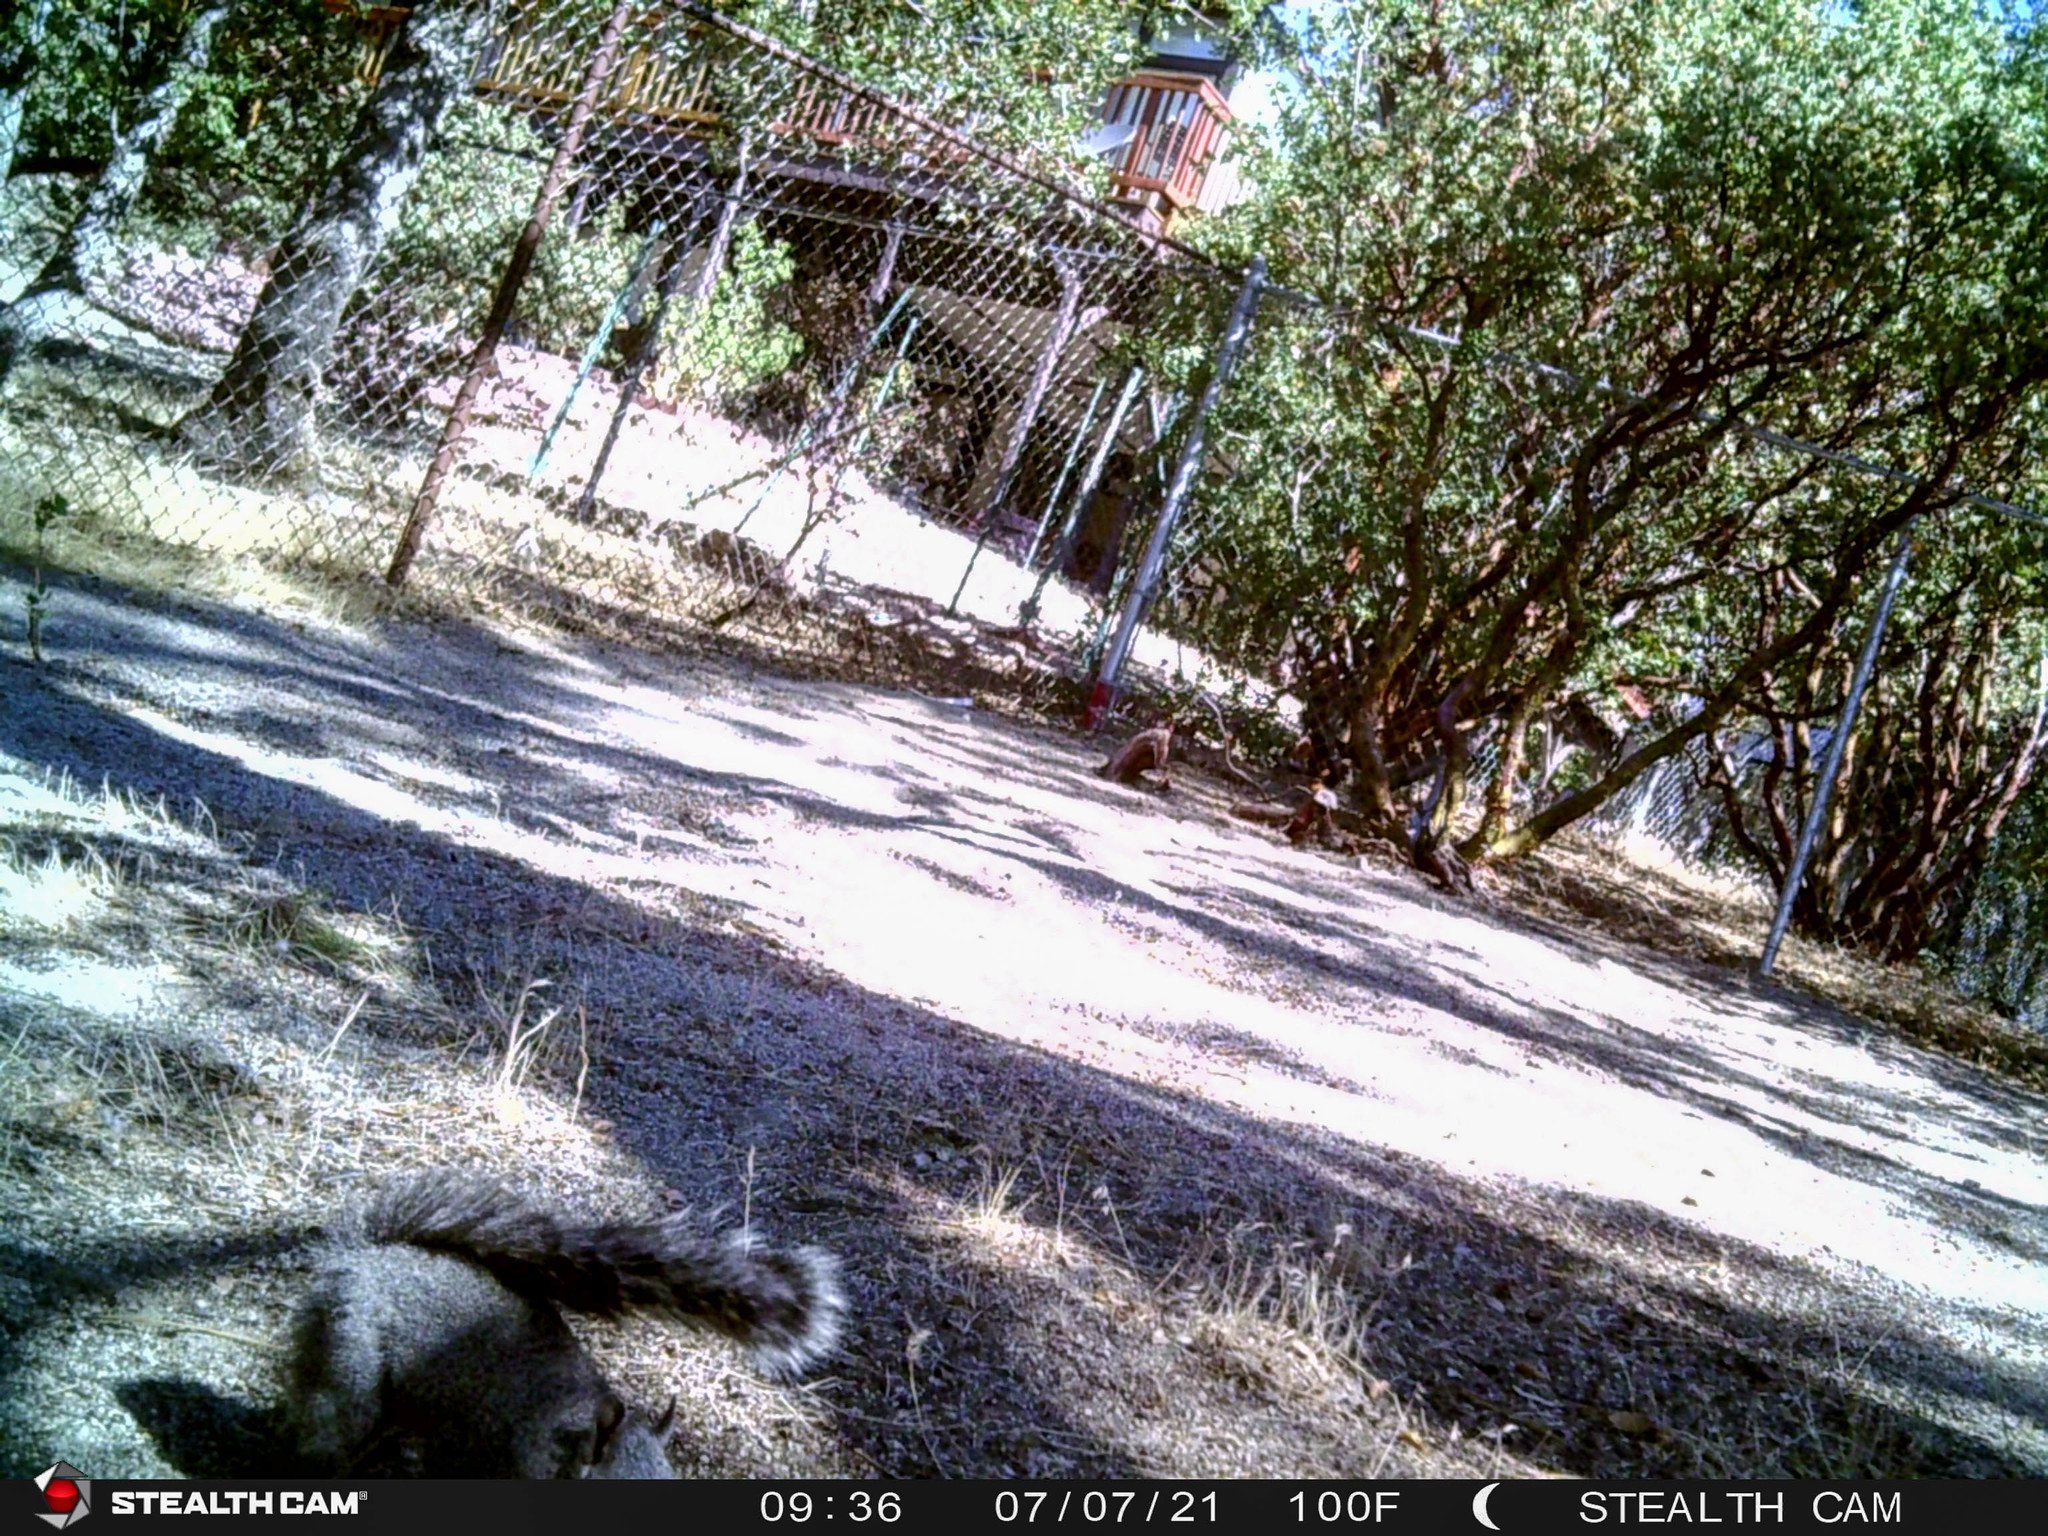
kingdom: Animalia
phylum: Chordata
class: Mammalia
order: Rodentia
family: Sciuridae
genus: Sciurus
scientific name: Sciurus griseus
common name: Western gray squirrel
